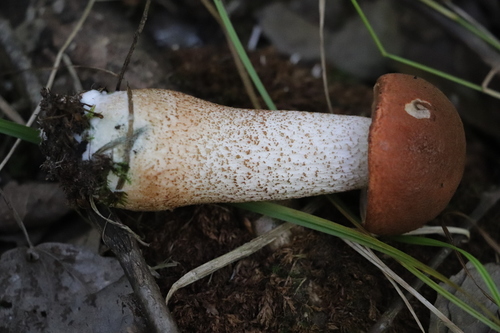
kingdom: Fungi
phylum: Basidiomycota
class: Agaricomycetes
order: Boletales
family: Boletaceae
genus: Leccinum
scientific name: Leccinum aurantiacum
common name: Orange bolete
